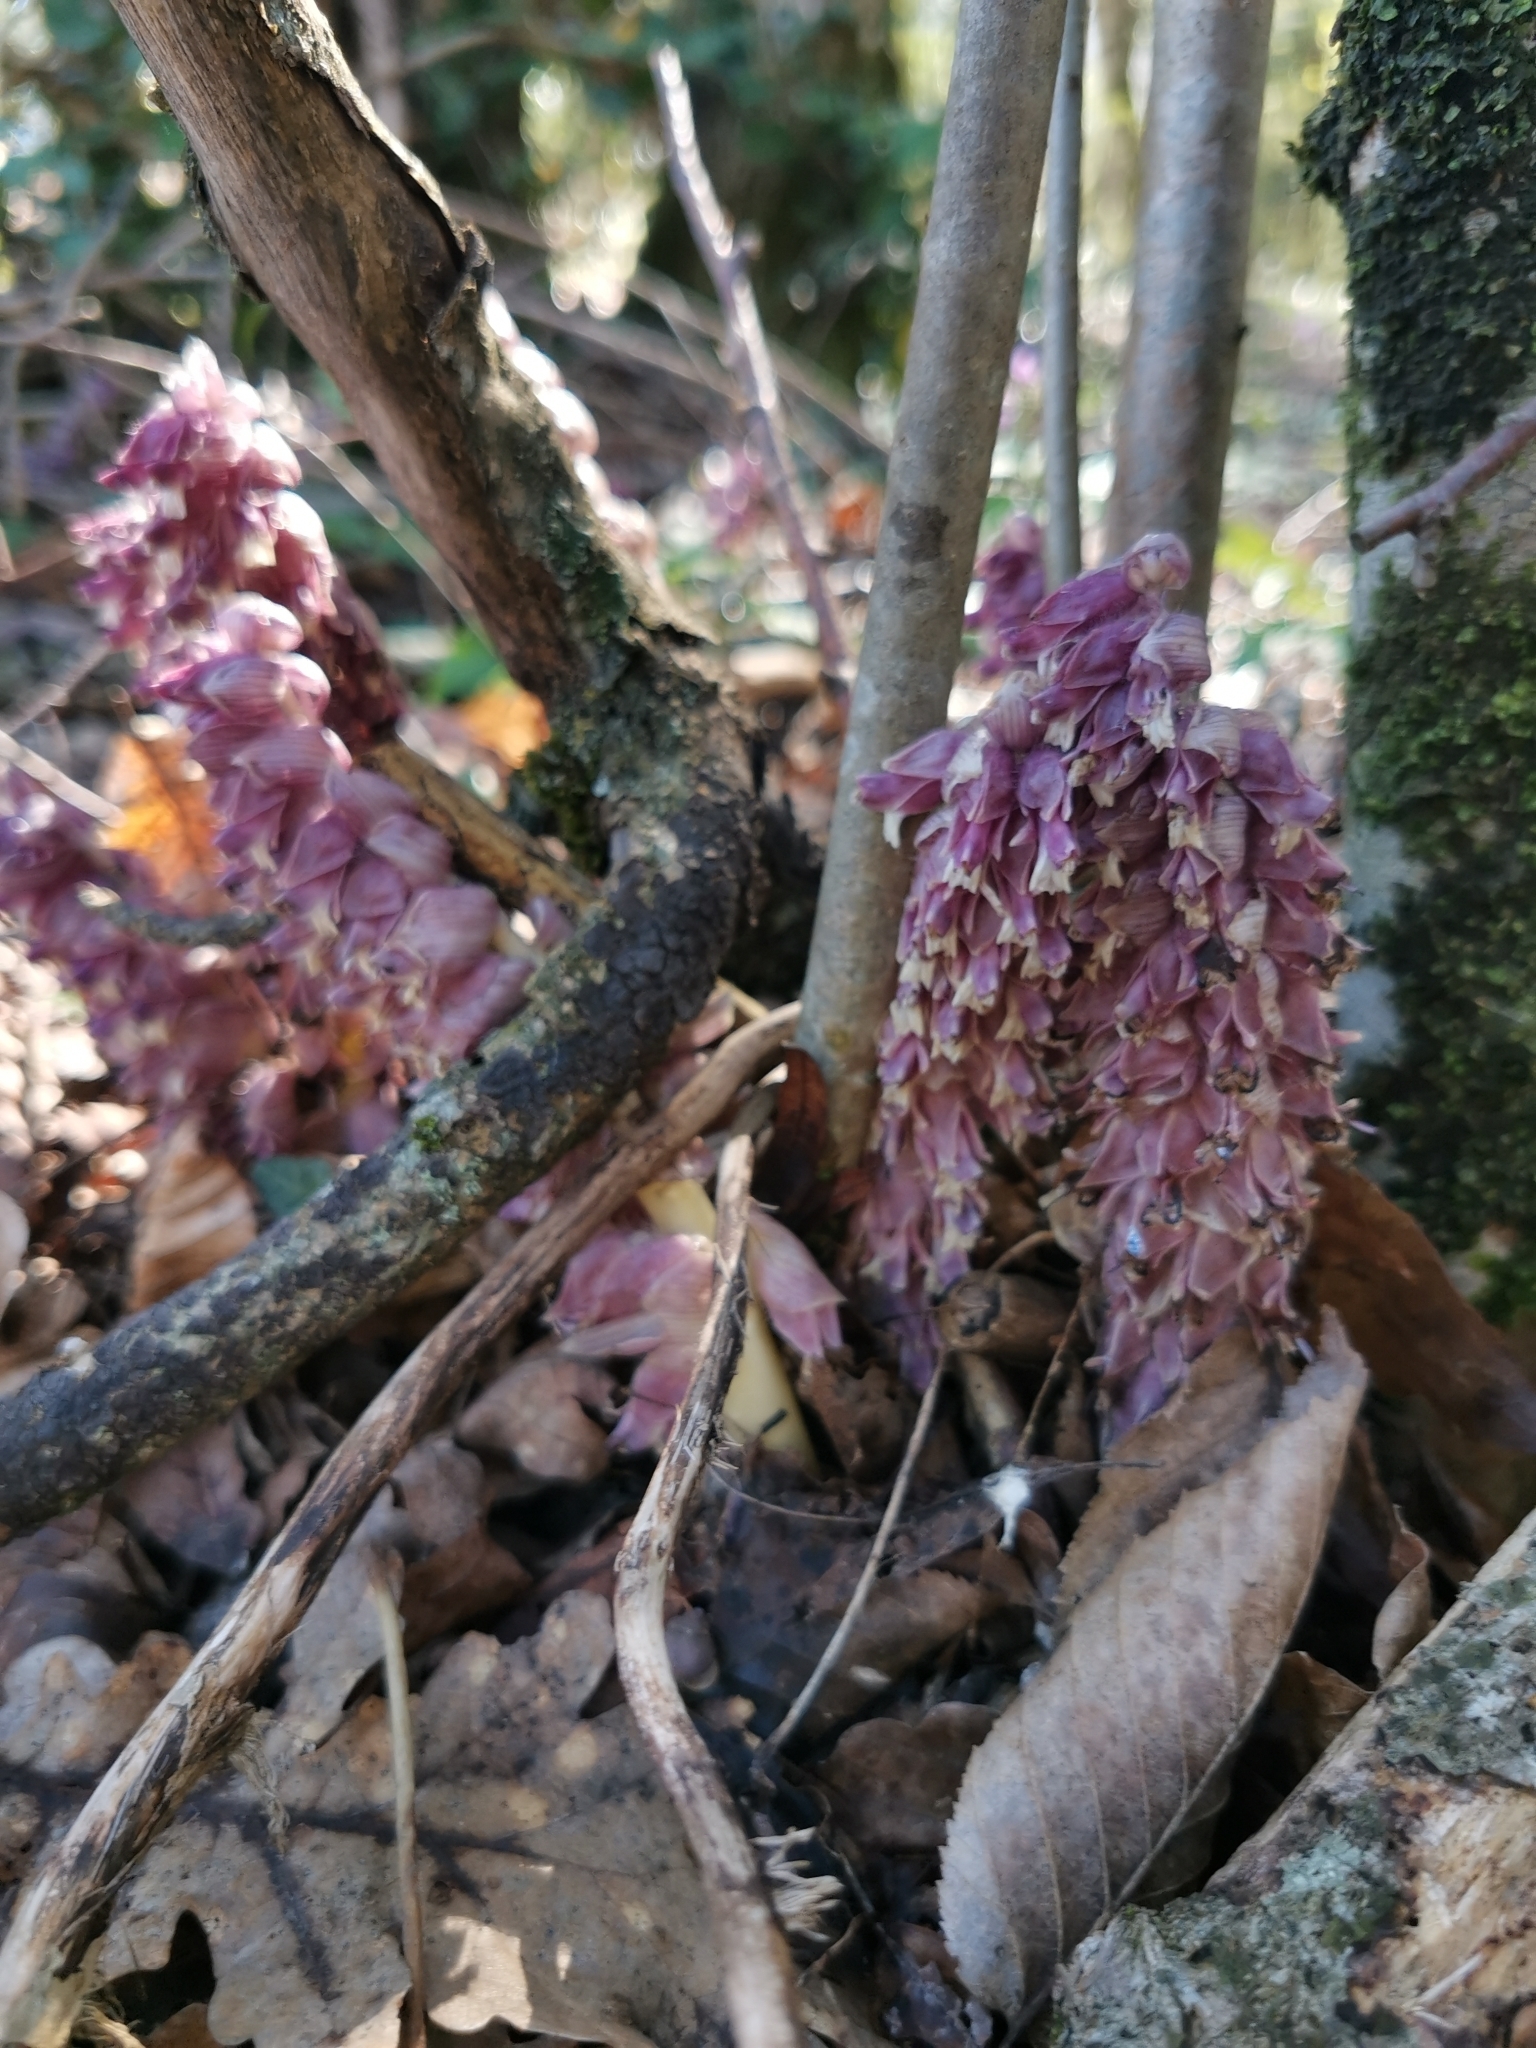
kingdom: Plantae
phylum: Tracheophyta
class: Magnoliopsida
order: Lamiales
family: Orobanchaceae
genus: Lathraea
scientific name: Lathraea squamaria
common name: Toothwort
